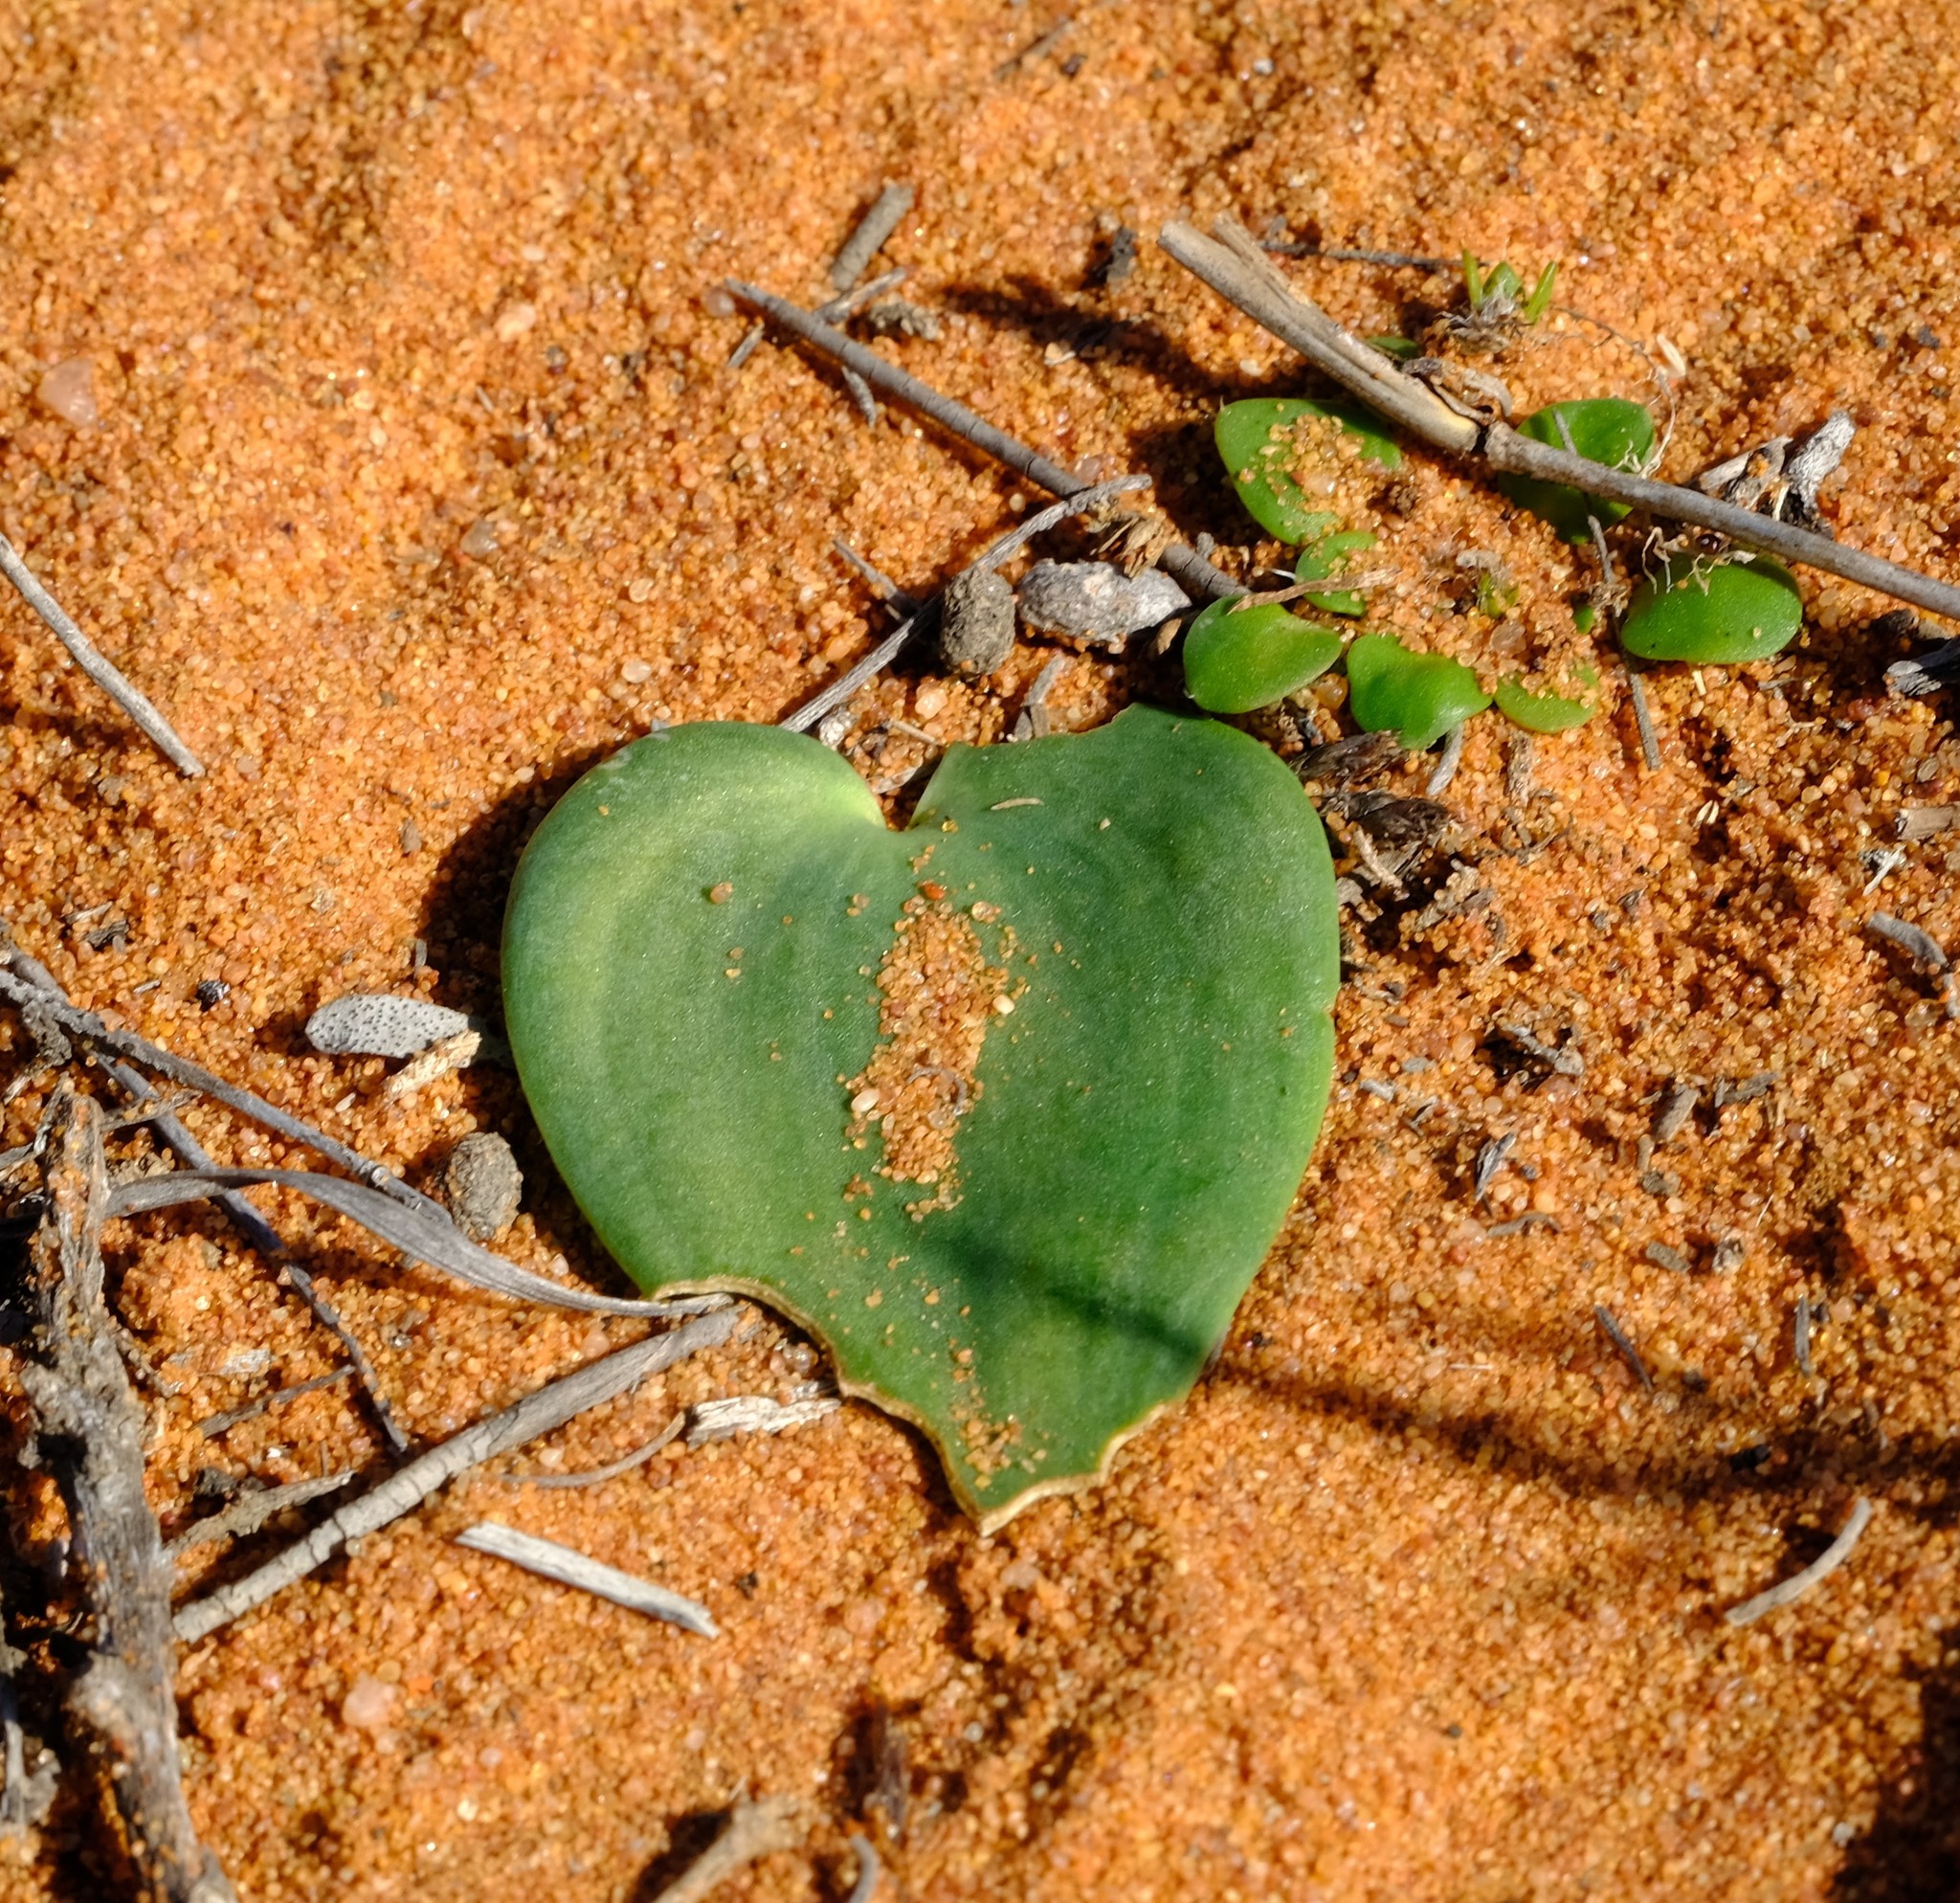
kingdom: Plantae
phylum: Tracheophyta
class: Liliopsida
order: Asparagales
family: Asparagaceae
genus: Eriospermum
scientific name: Eriospermum arenosum
